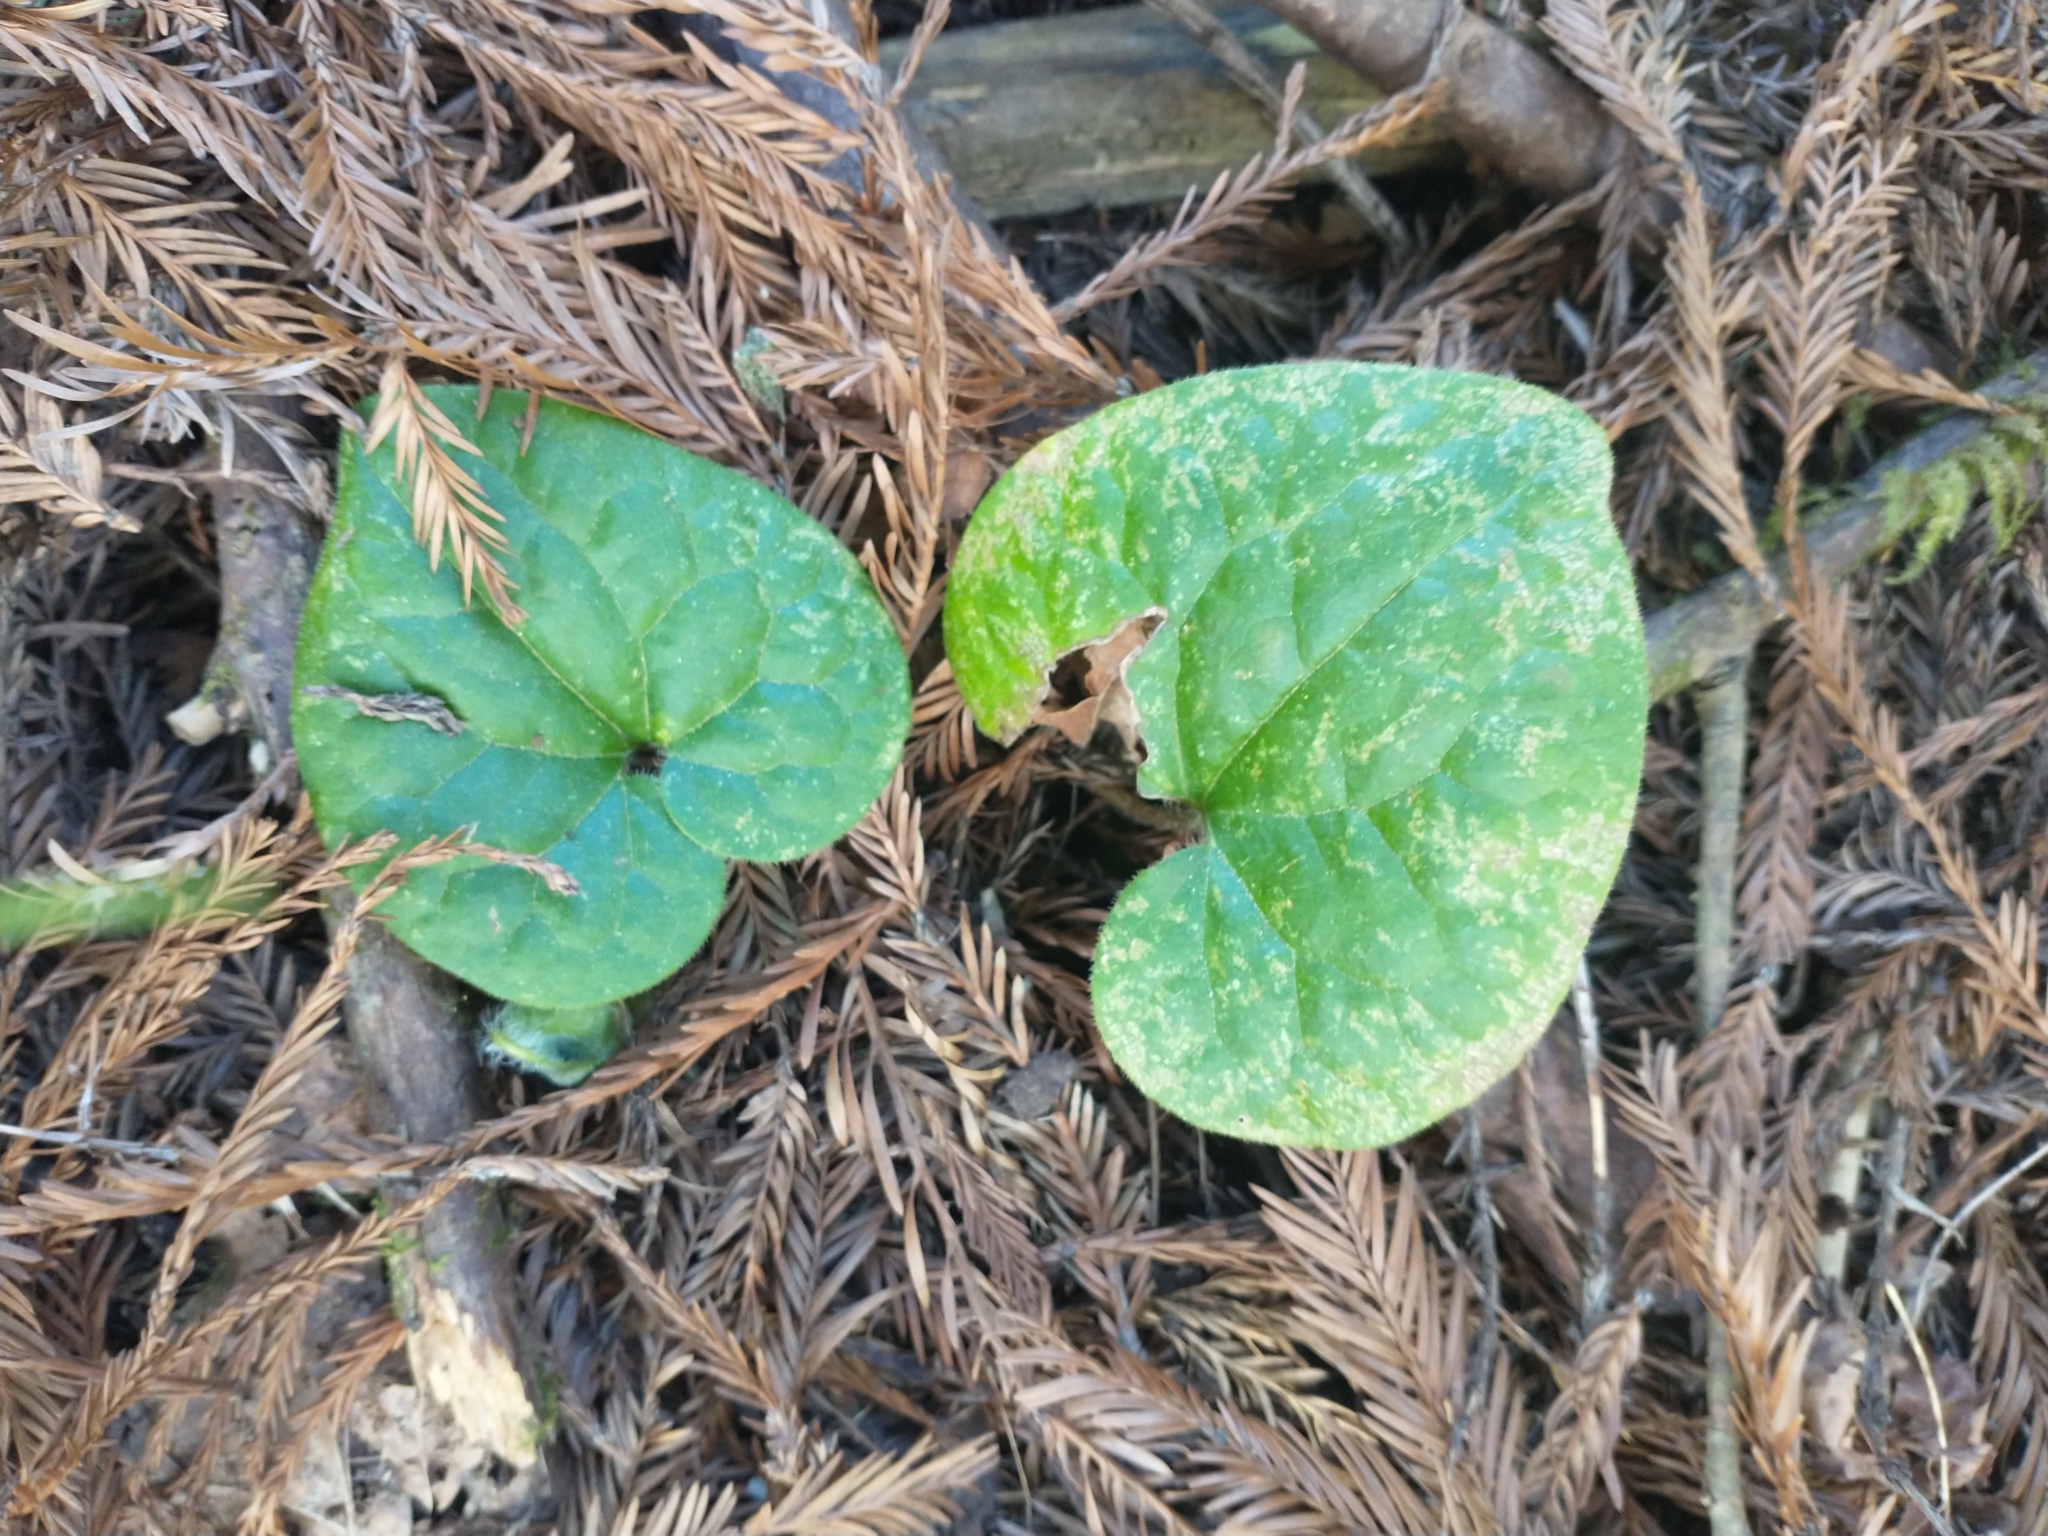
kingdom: Plantae
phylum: Tracheophyta
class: Magnoliopsida
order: Piperales
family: Aristolochiaceae
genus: Asarum
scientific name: Asarum caudatum
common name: Wild ginger
